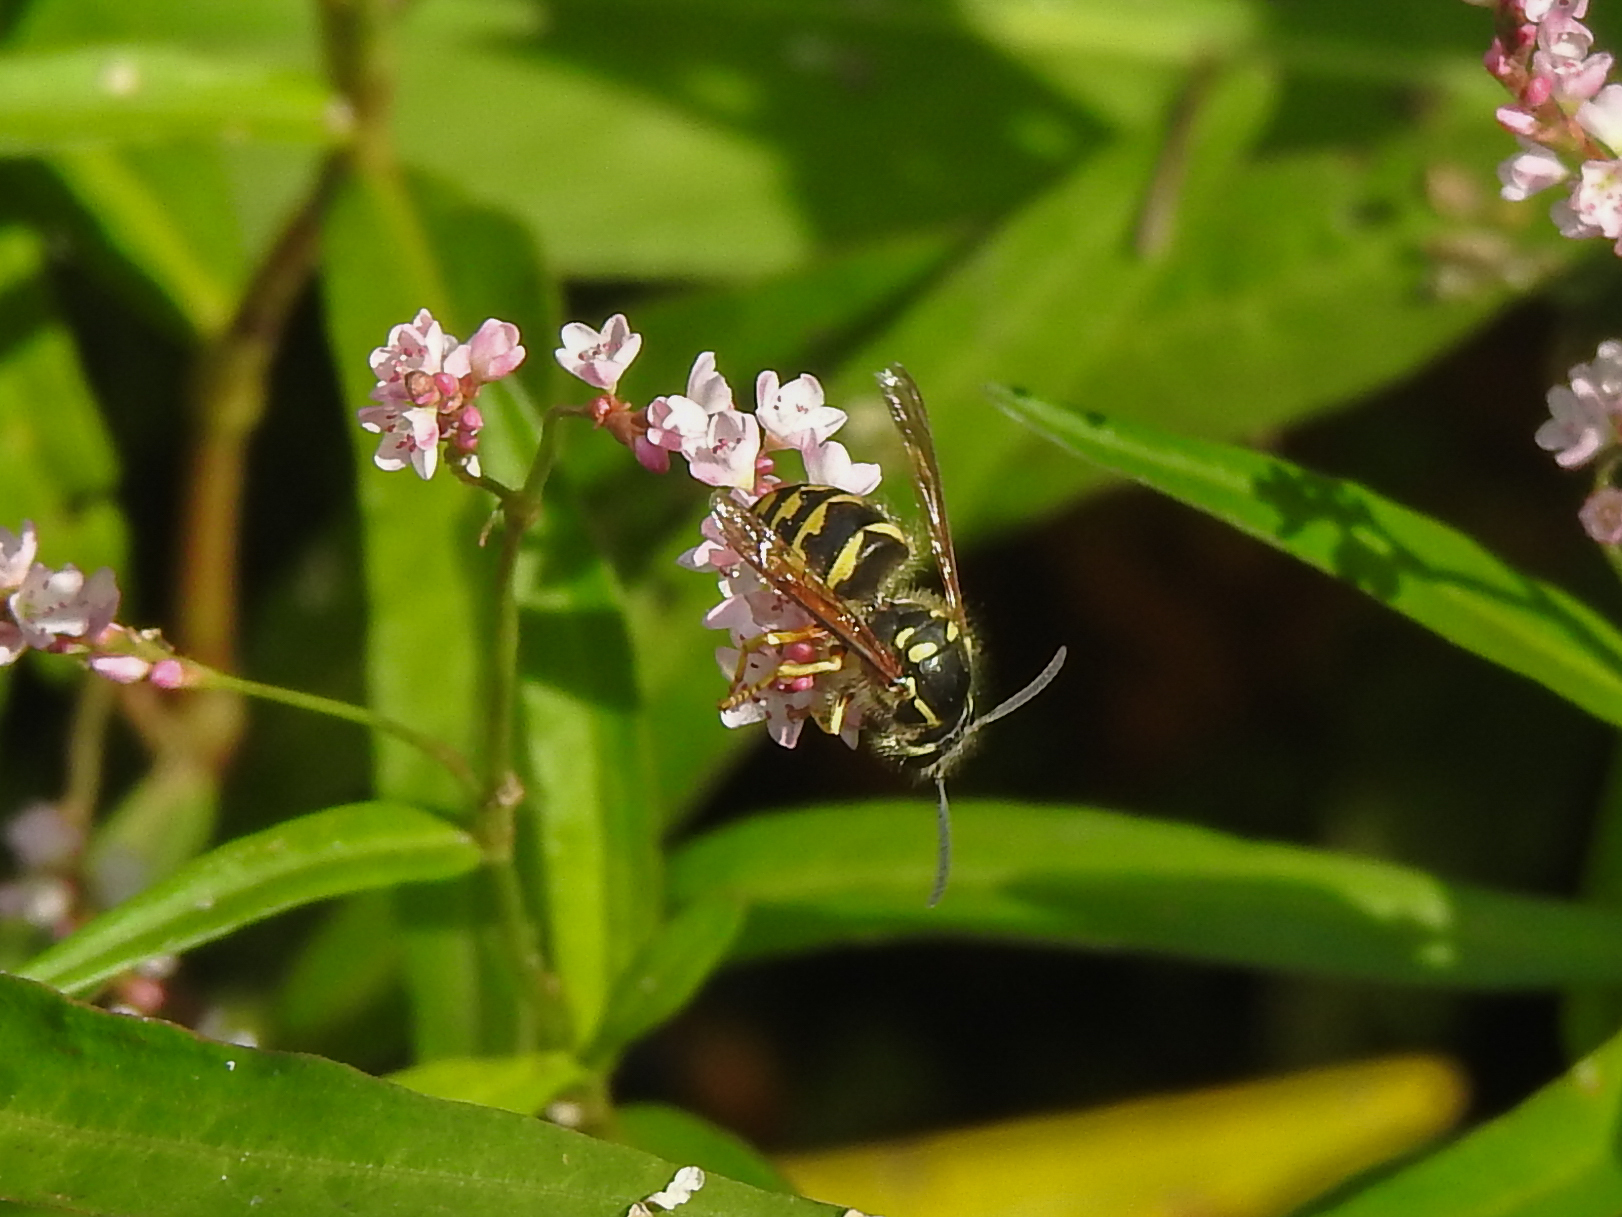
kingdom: Animalia
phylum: Arthropoda
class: Insecta
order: Hymenoptera
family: Vespidae
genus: Dolichovespula
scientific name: Dolichovespula arenaria
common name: Aerial yellowjacket
